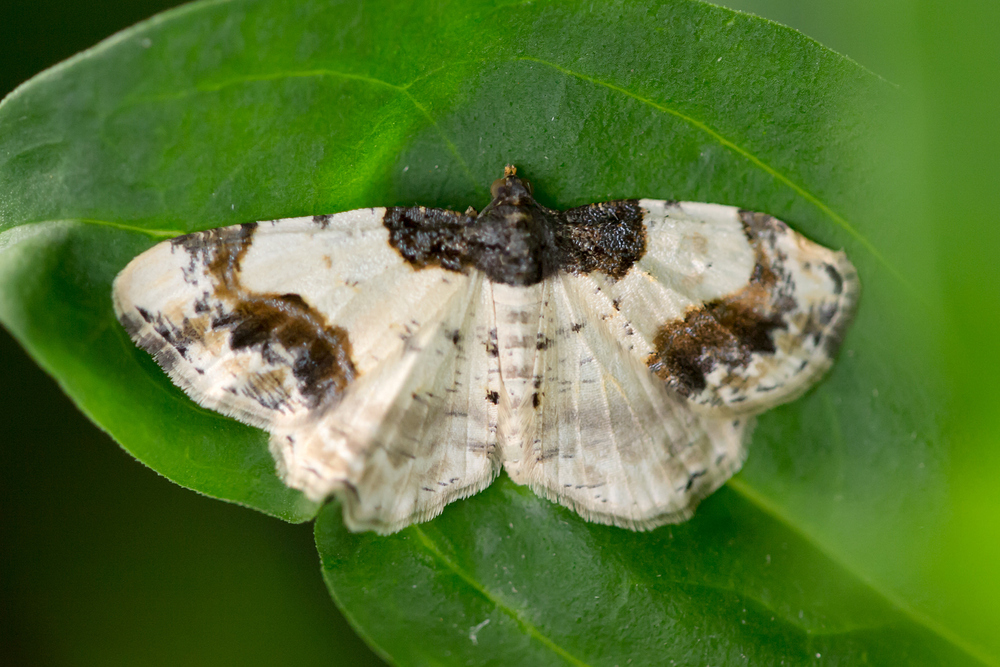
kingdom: Animalia
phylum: Arthropoda
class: Insecta
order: Lepidoptera
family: Geometridae
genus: Ligdia
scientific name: Ligdia adustata
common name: Scorched carpet
